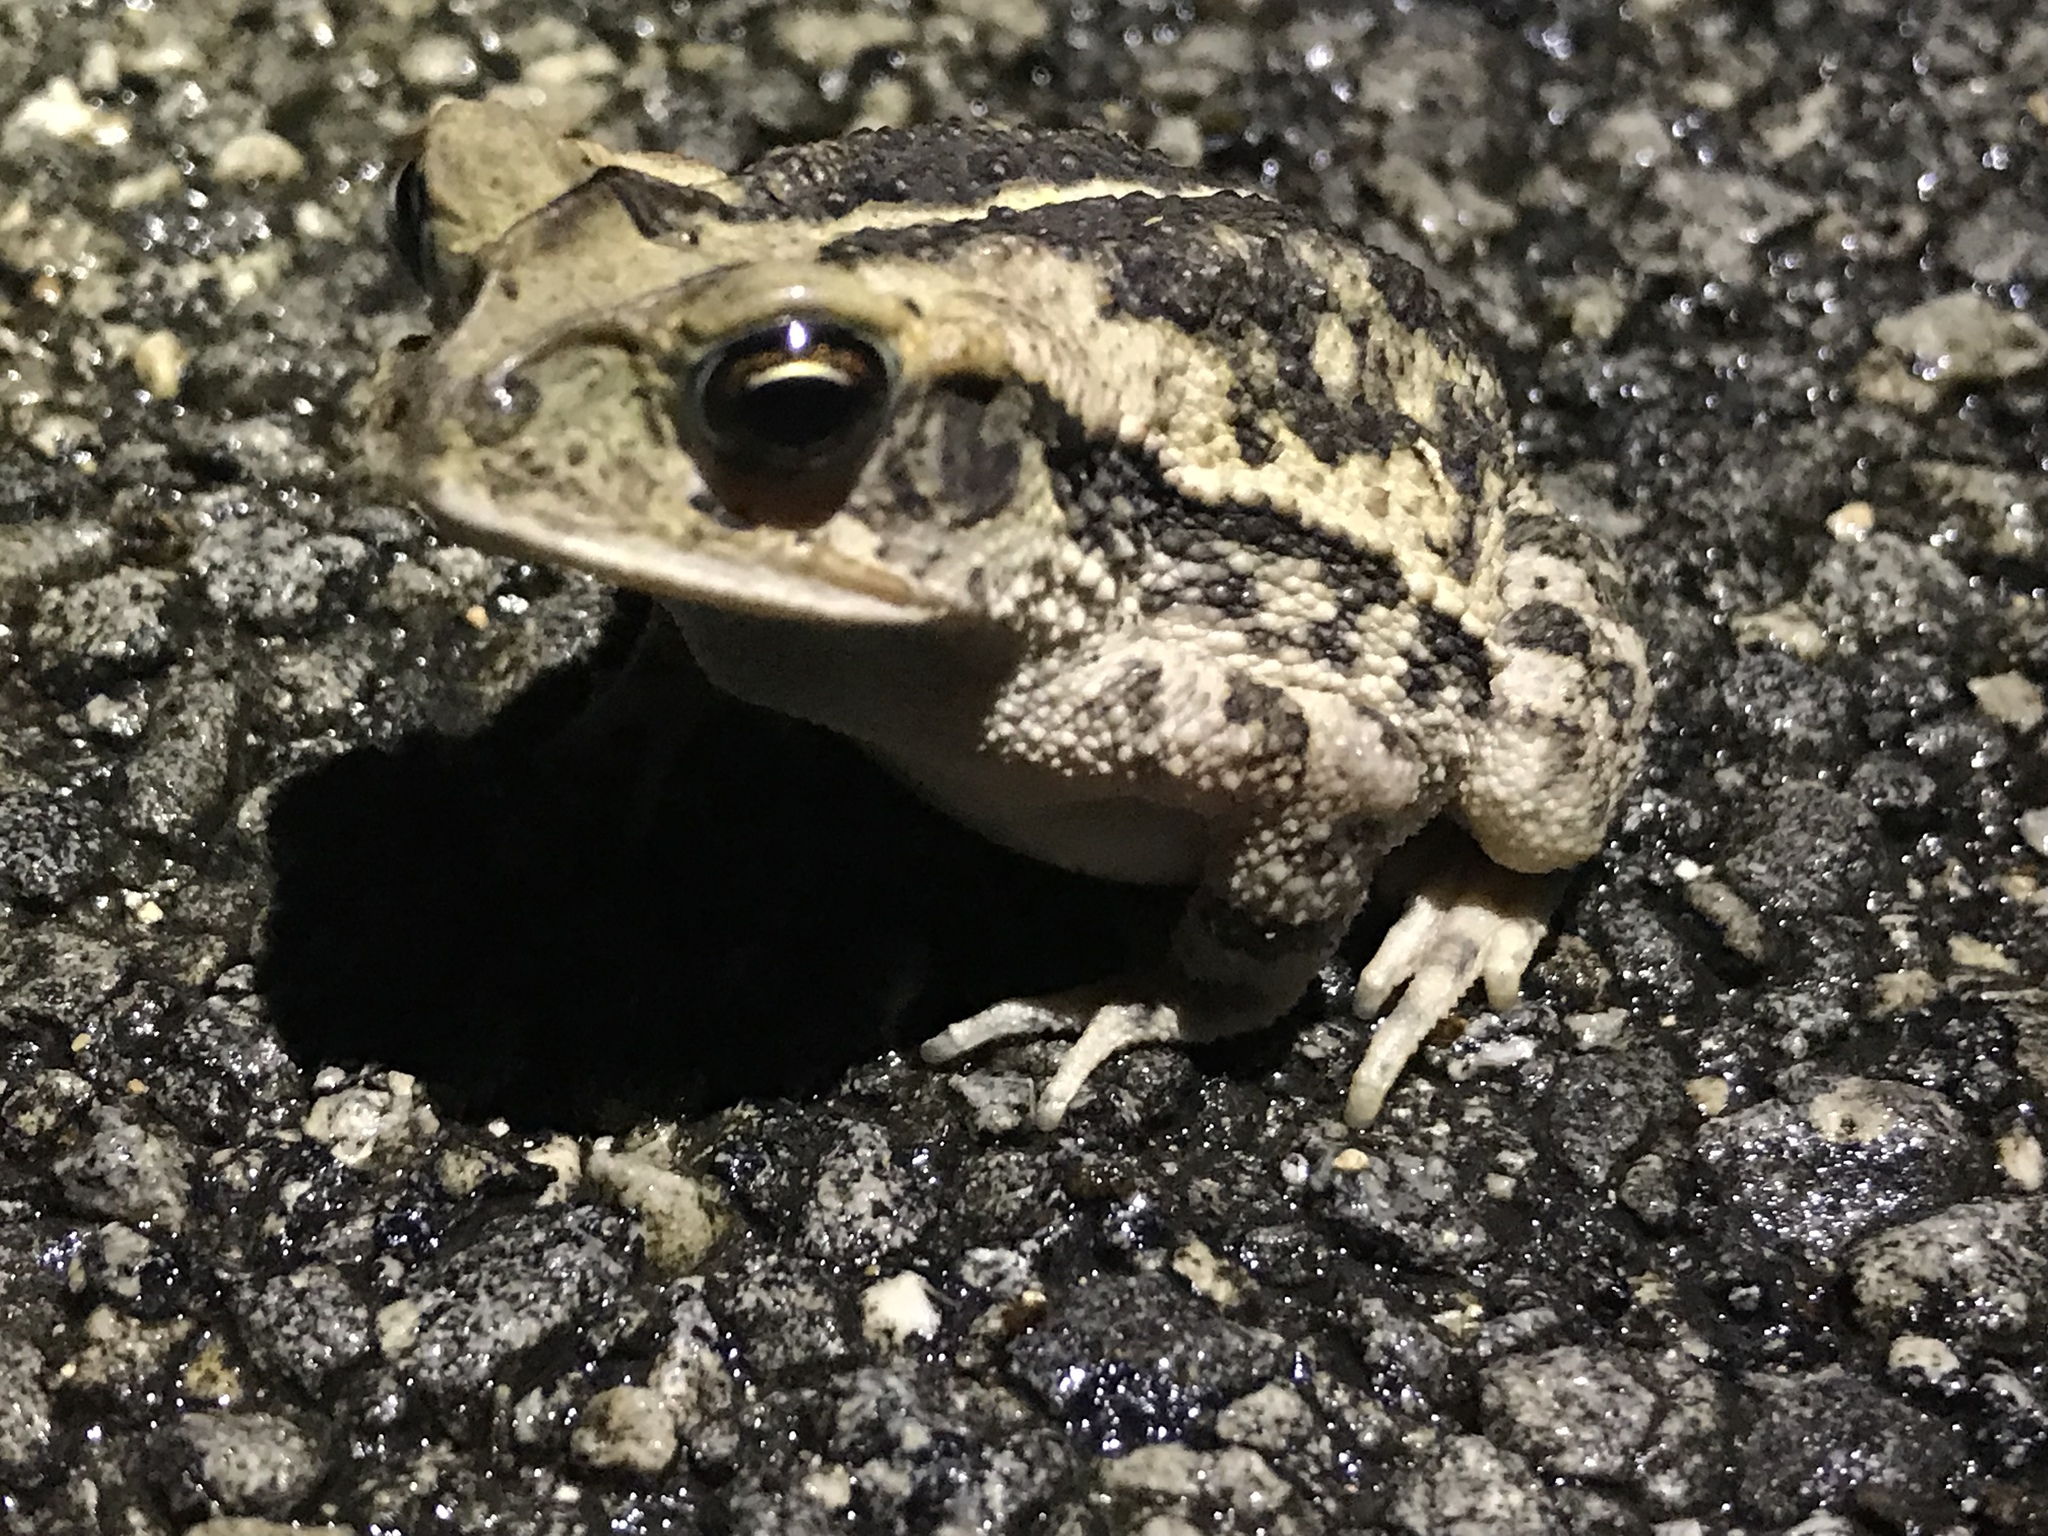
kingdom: Animalia
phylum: Chordata
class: Amphibia
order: Anura
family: Bufonidae
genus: Incilius
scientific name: Incilius nebulifer
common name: Gulf coast toad
